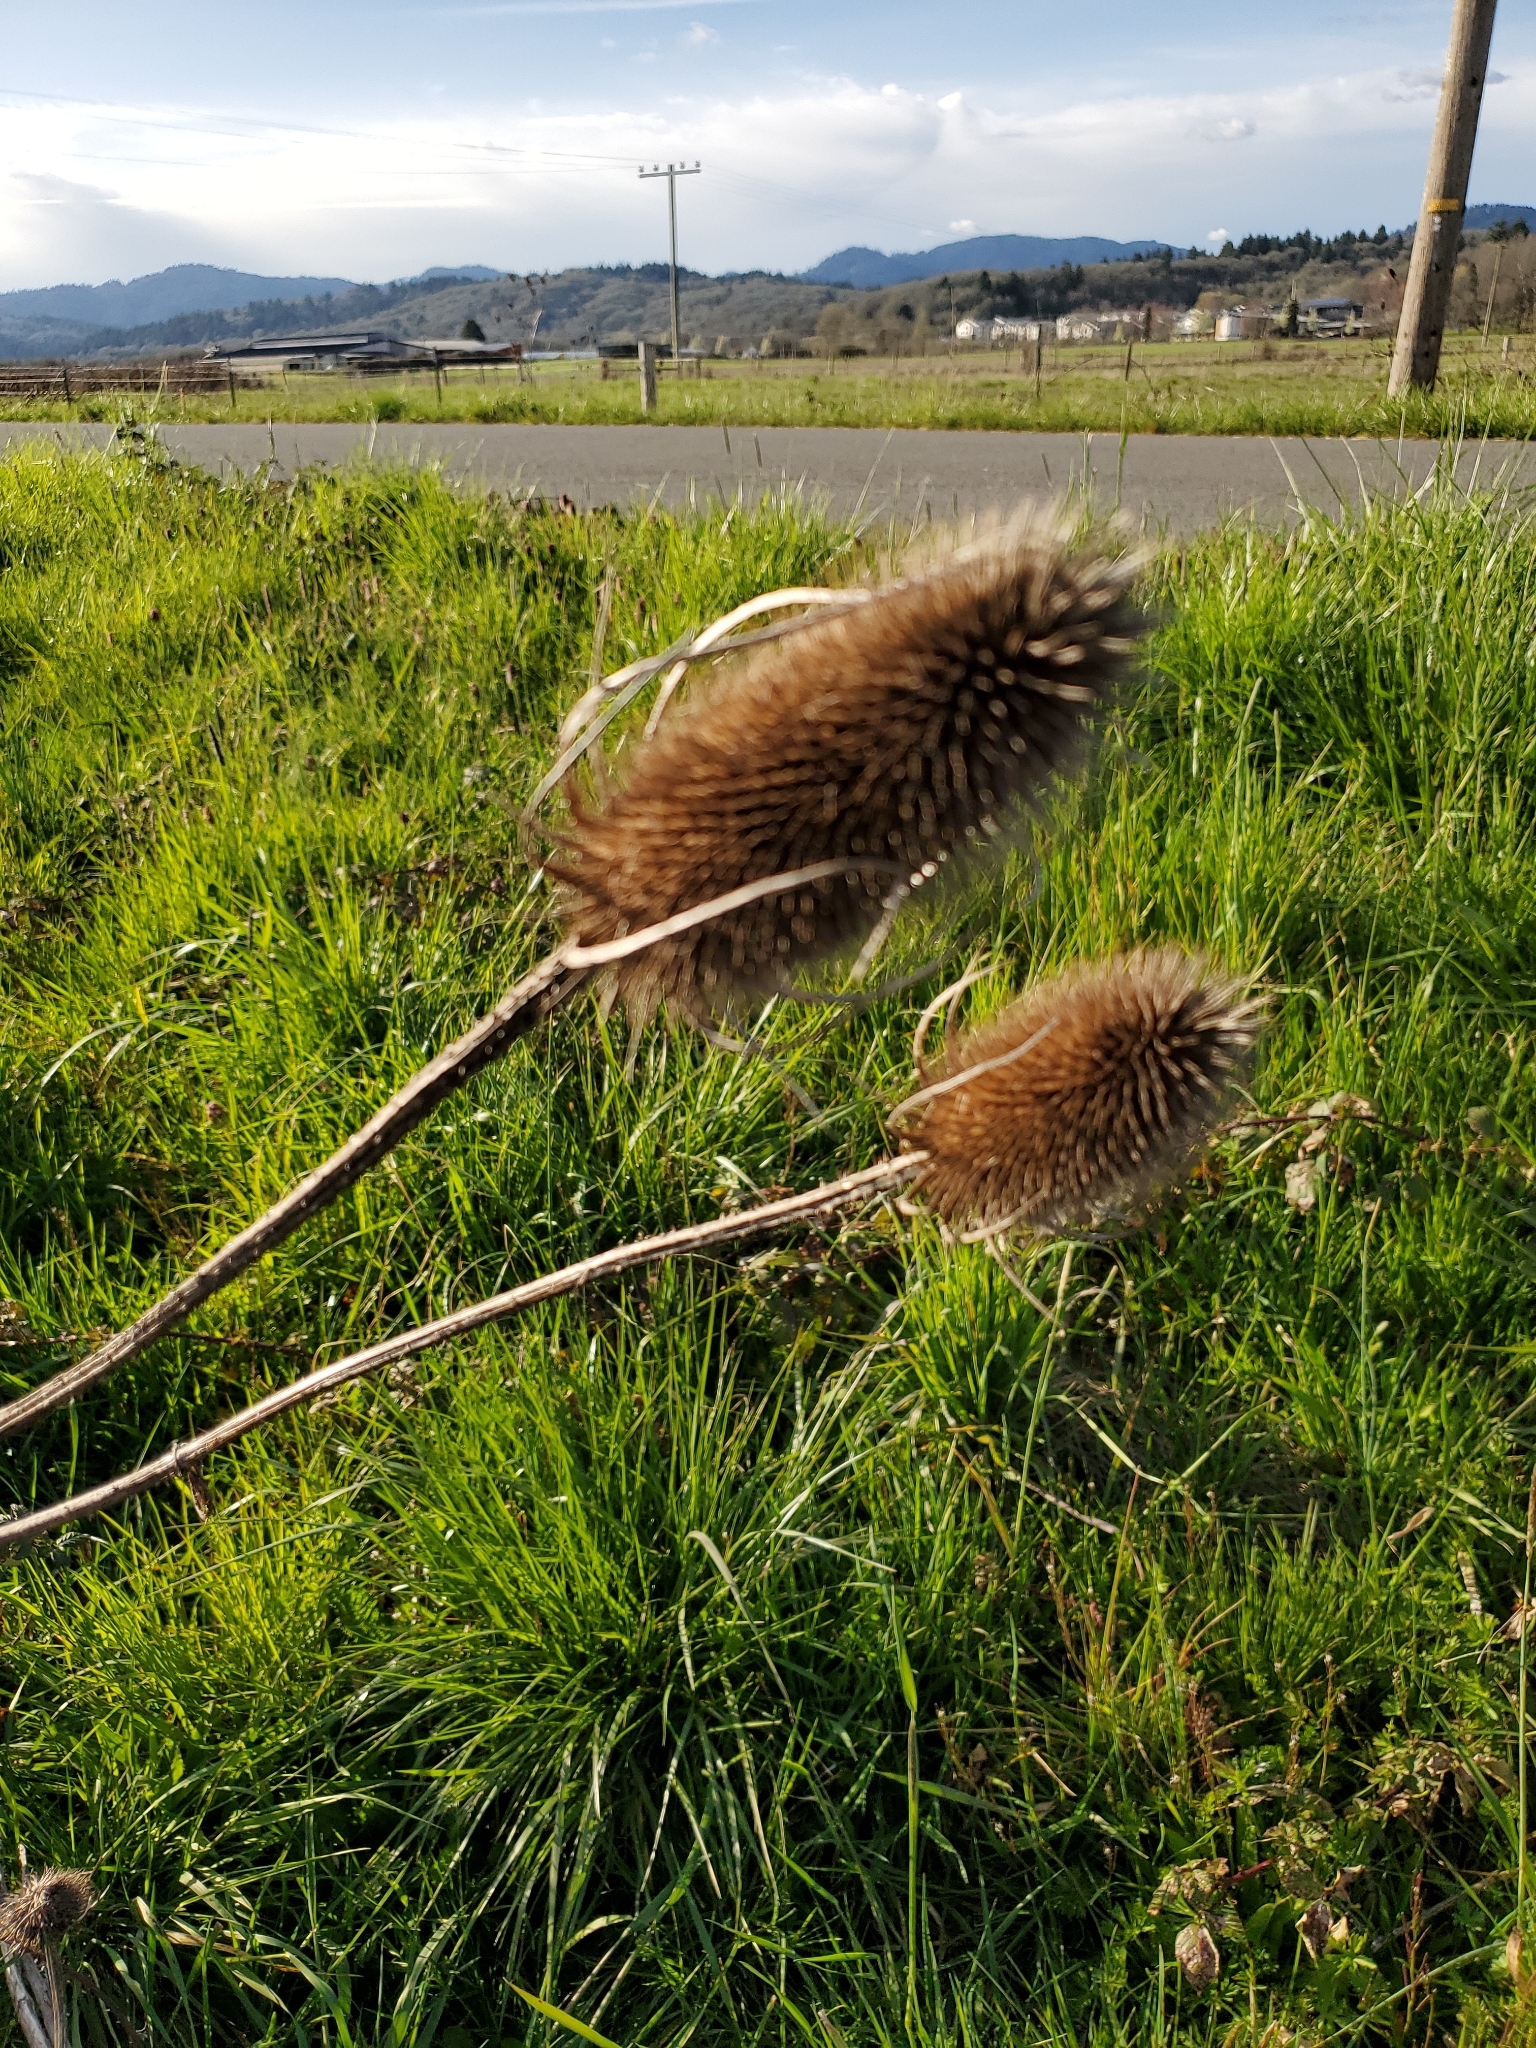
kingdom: Plantae
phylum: Tracheophyta
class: Magnoliopsida
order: Dipsacales
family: Caprifoliaceae
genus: Dipsacus
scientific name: Dipsacus fullonum
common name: Teasel
